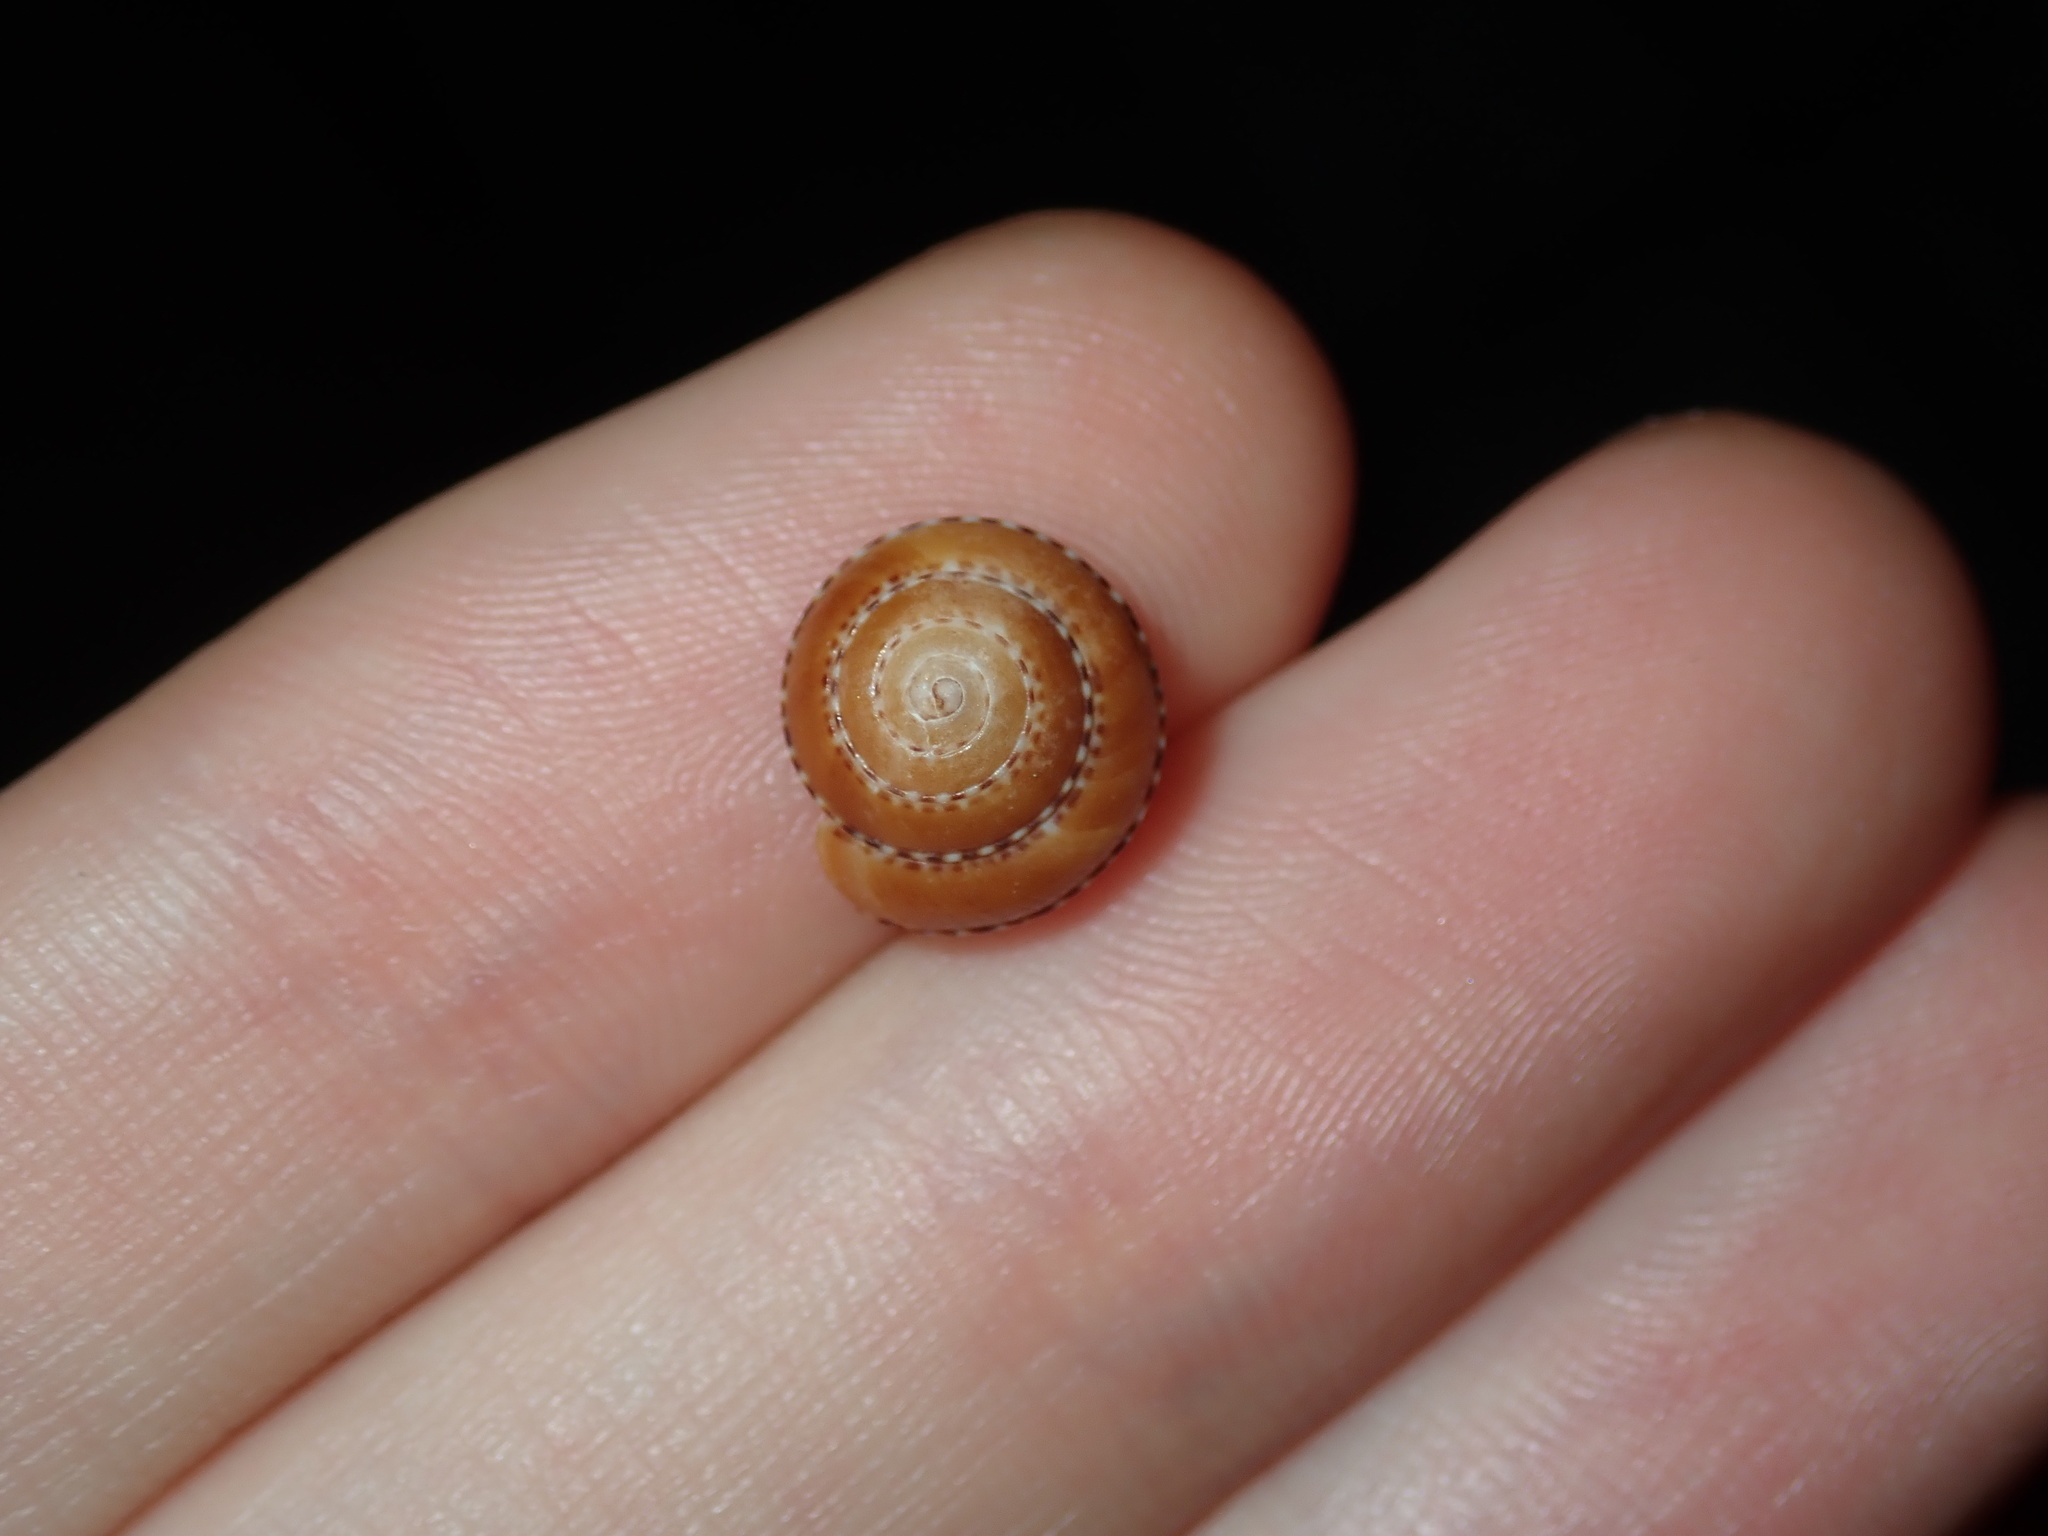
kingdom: Animalia
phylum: Mollusca
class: Gastropoda
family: Architectonicidae
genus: Philippia
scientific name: Philippia lutea
